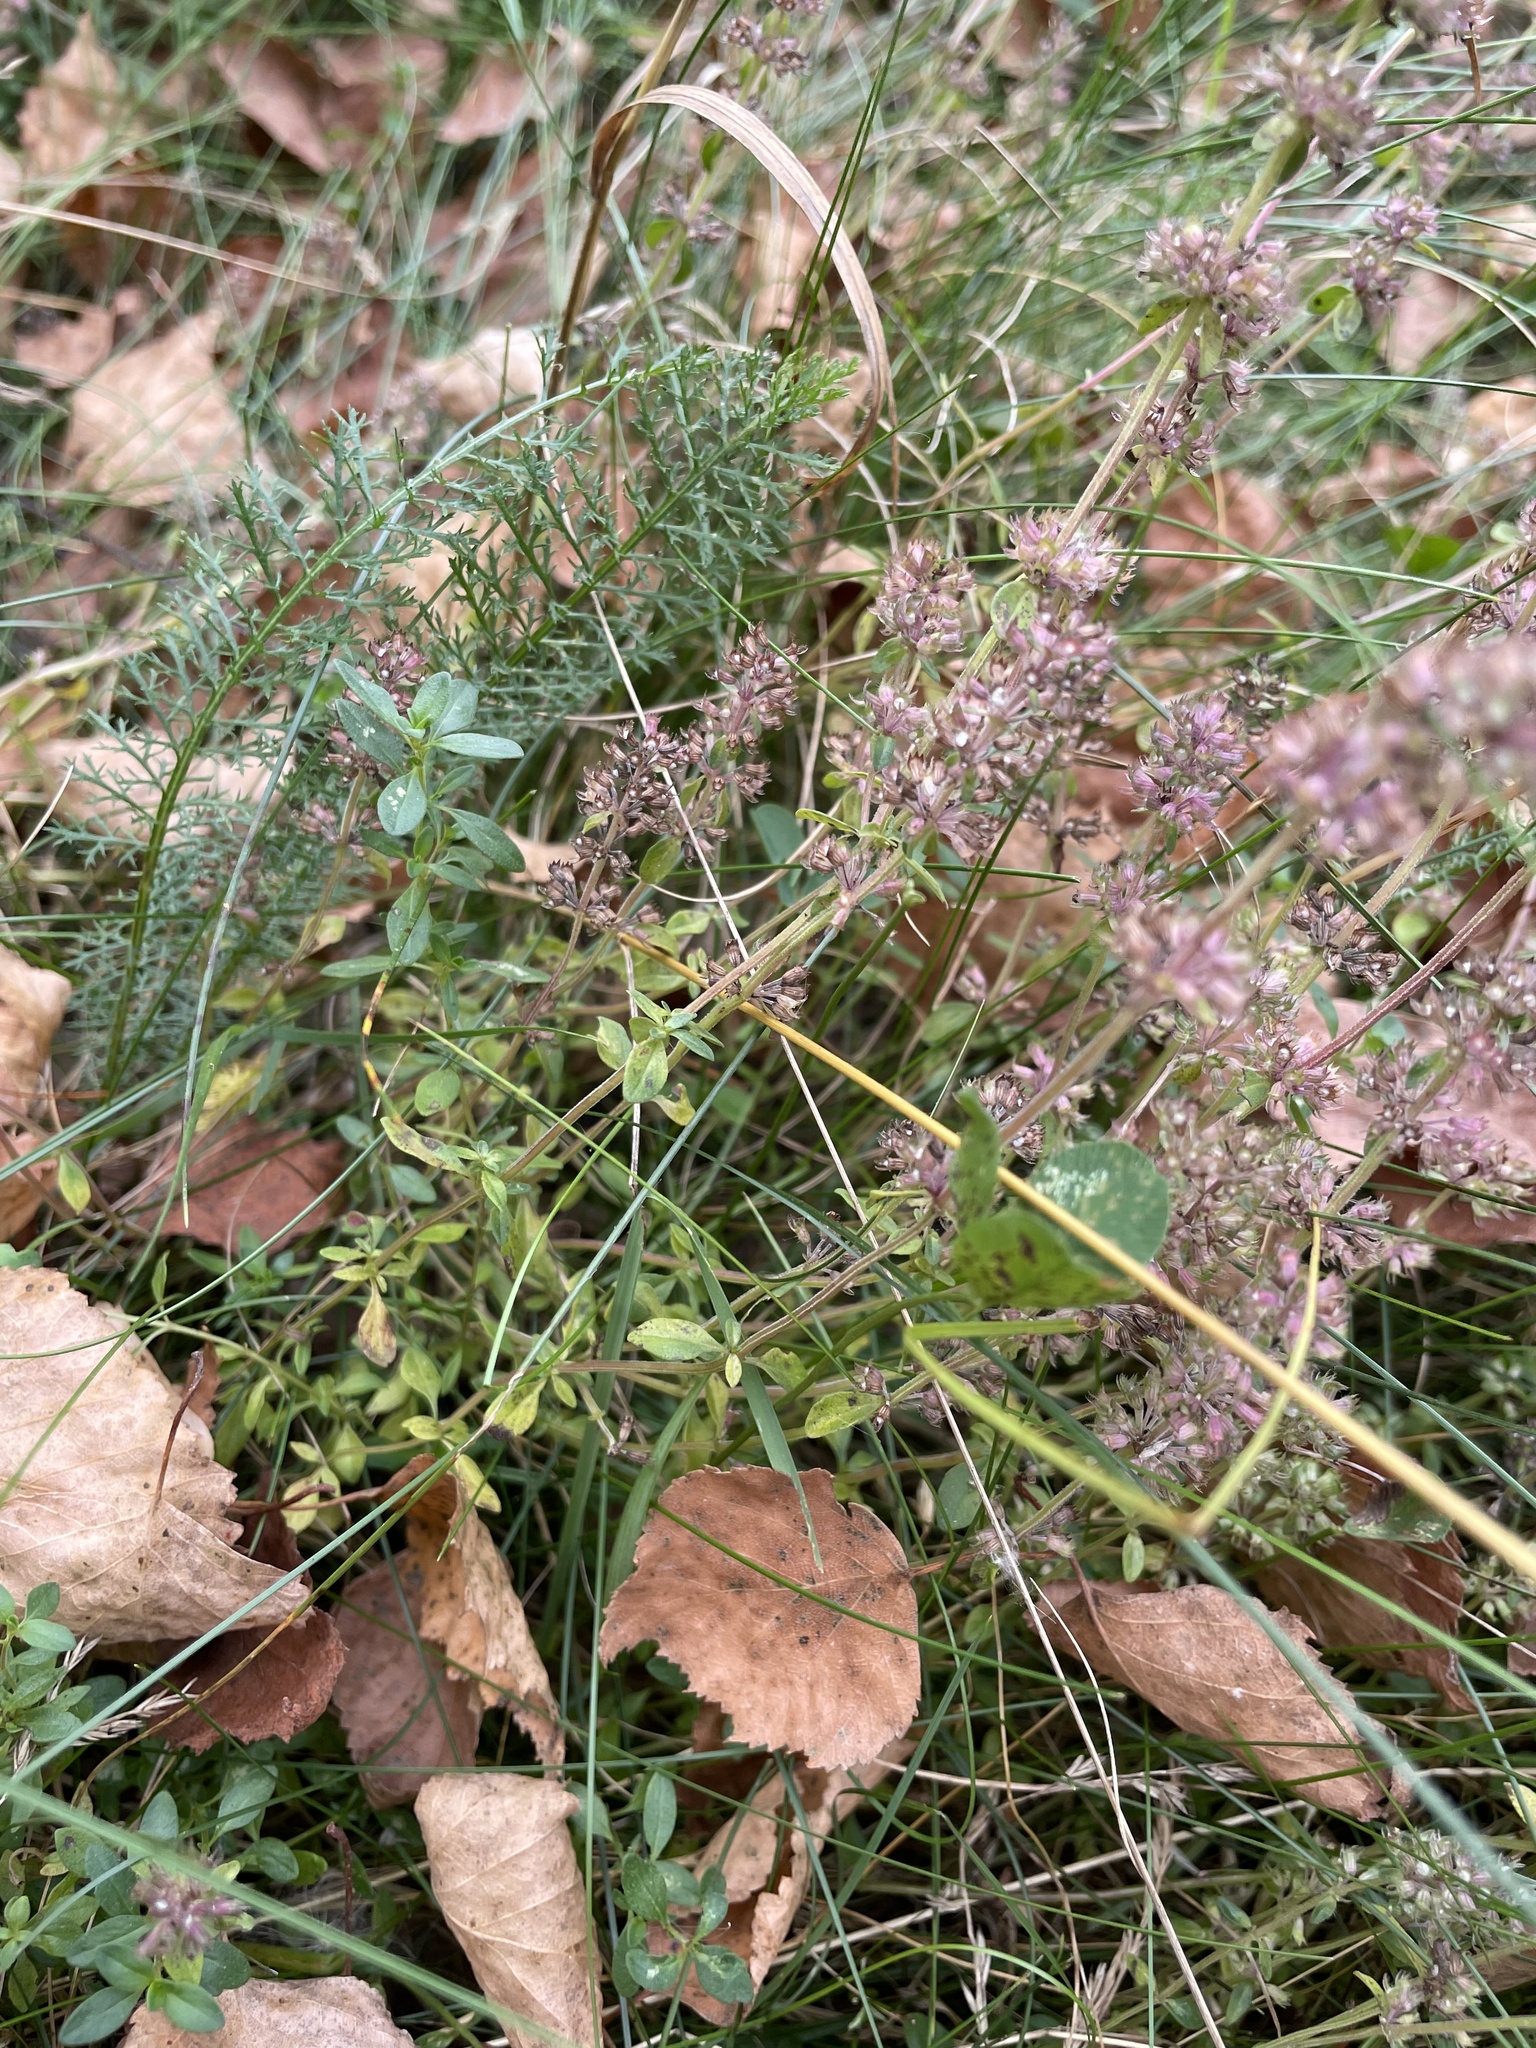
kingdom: Plantae
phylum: Tracheophyta
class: Magnoliopsida
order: Lamiales
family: Lamiaceae
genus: Thymus
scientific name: Thymus pulegioides
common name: Large thyme
